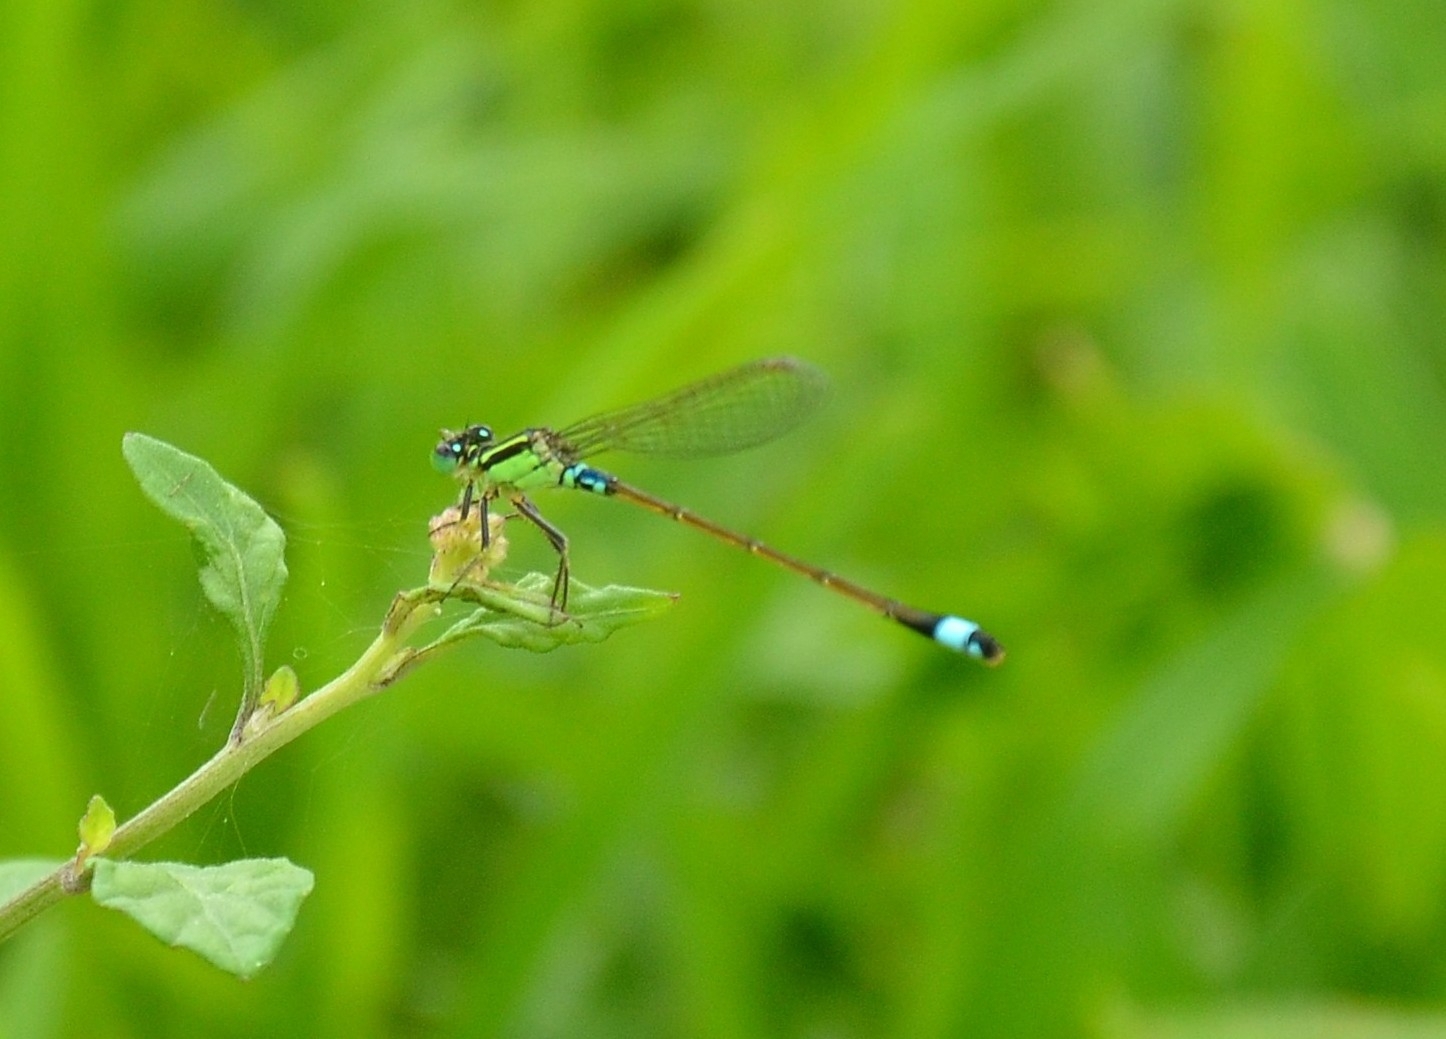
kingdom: Animalia
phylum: Arthropoda
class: Insecta
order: Odonata
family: Coenagrionidae
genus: Ischnura
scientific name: Ischnura senegalensis
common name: Tropical bluetail
